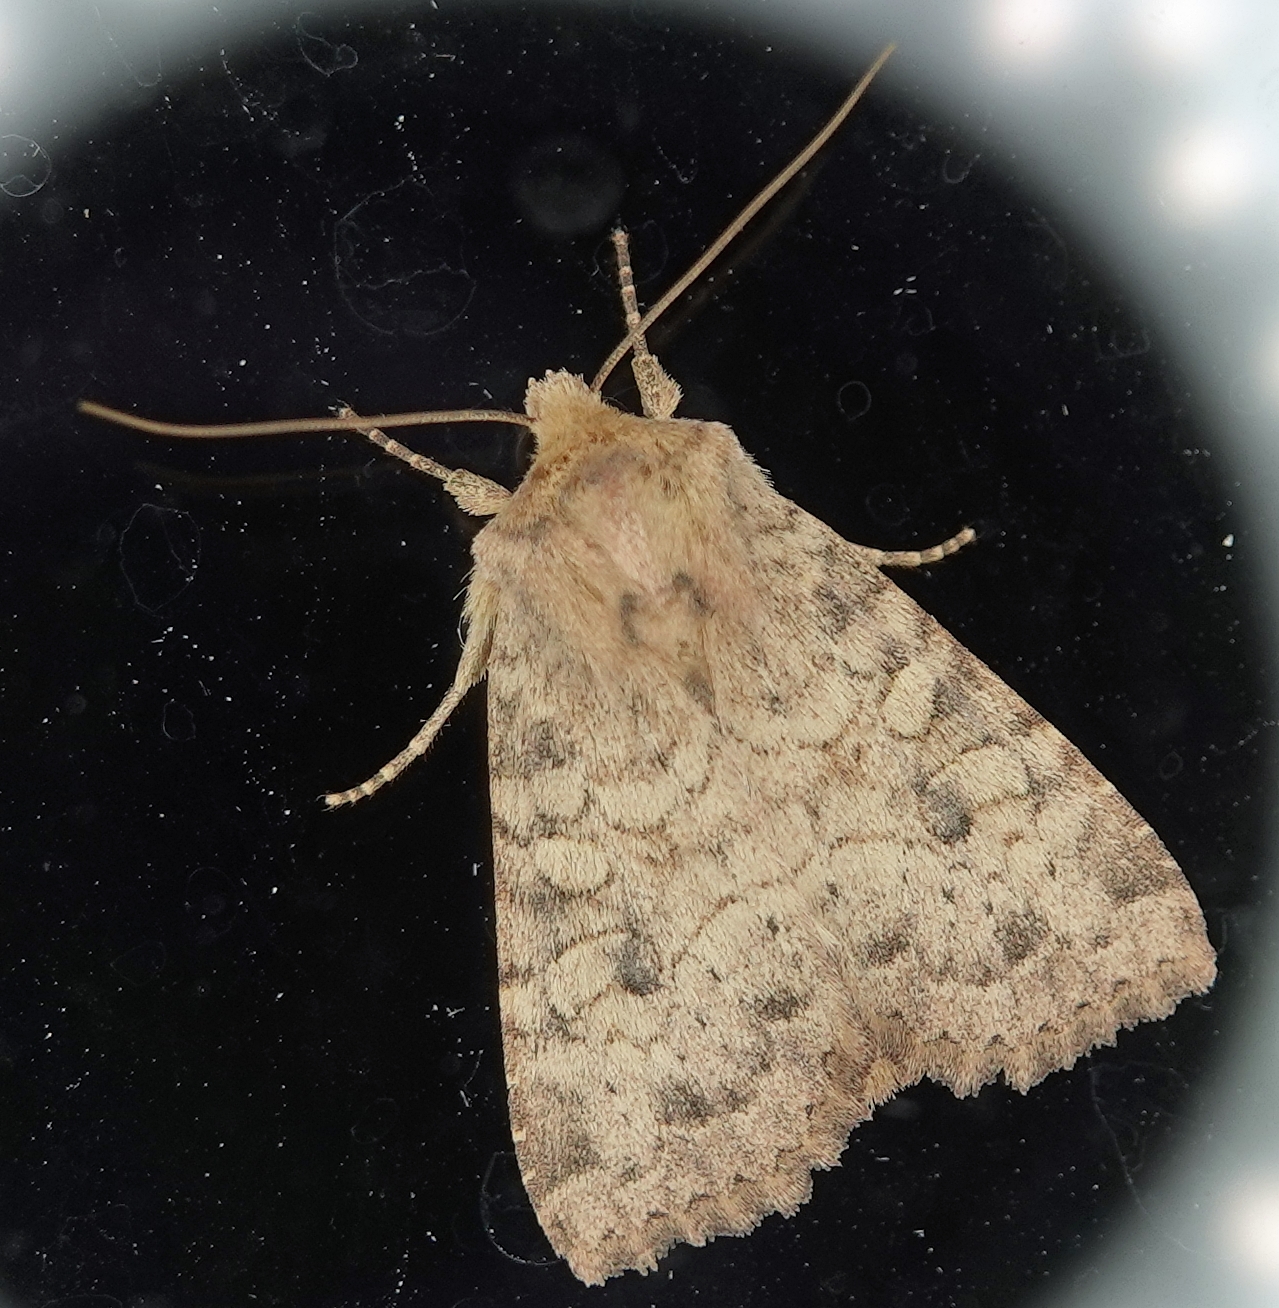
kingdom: Animalia
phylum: Arthropoda
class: Insecta
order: Lepidoptera
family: Noctuidae
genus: Apamea
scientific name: Apamea helva
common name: Yellow three-spot
